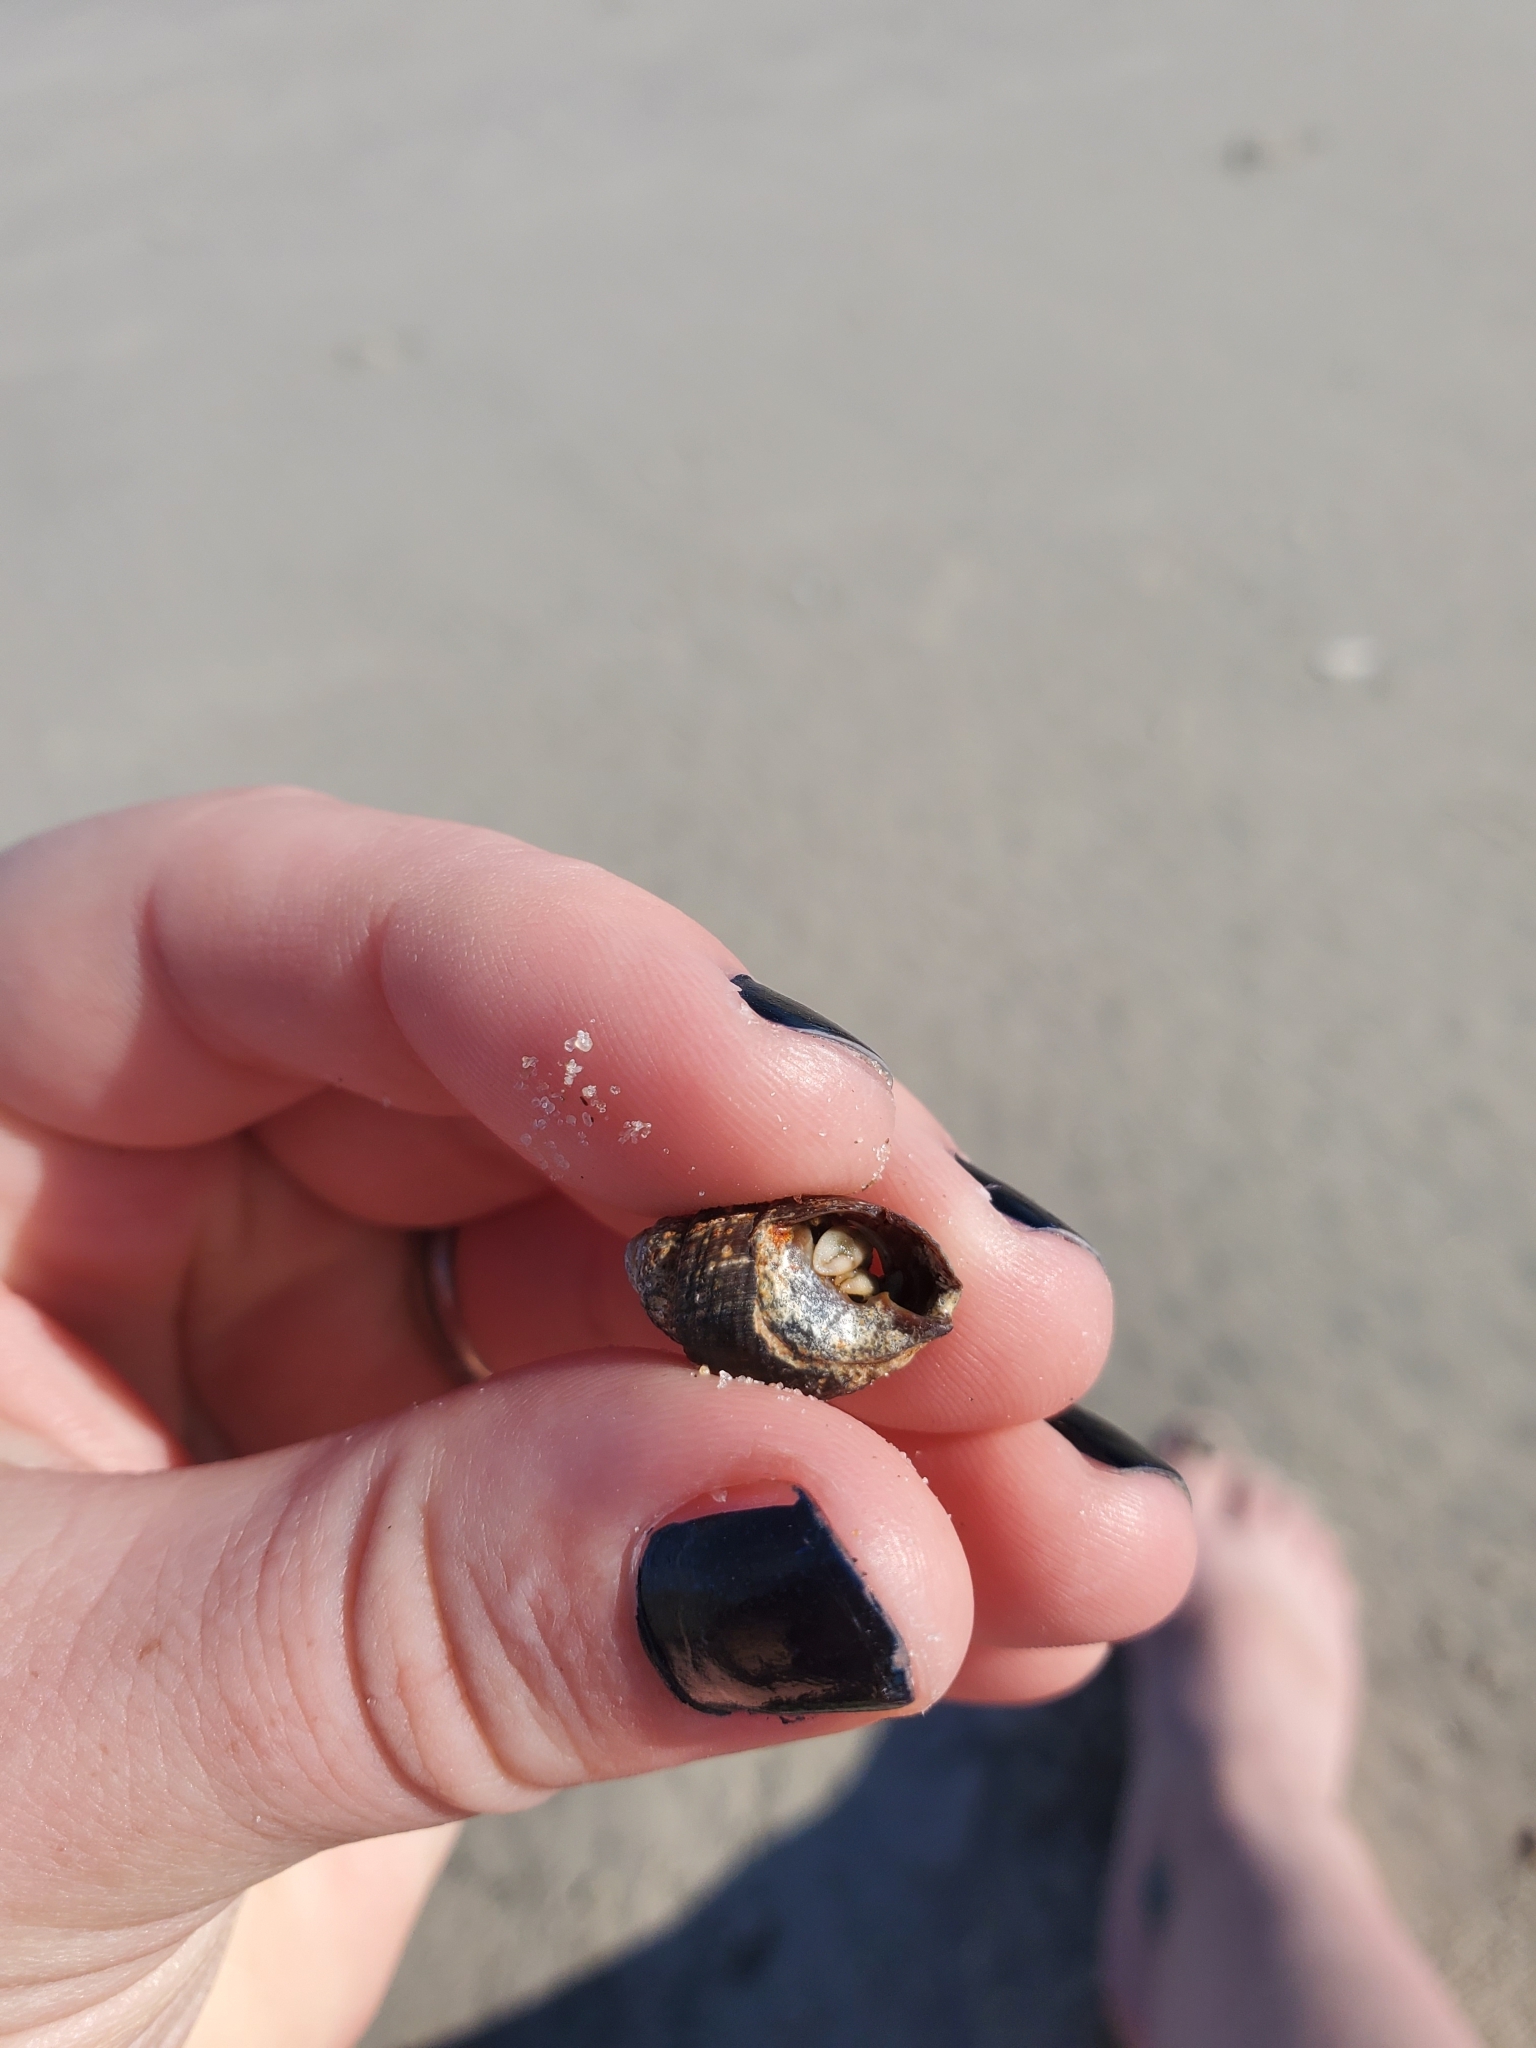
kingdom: Animalia
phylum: Arthropoda
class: Malacostraca
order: Decapoda
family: Paguridae
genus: Pagurus
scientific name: Pagurus longicarpus
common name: Long-armed hermit crab
